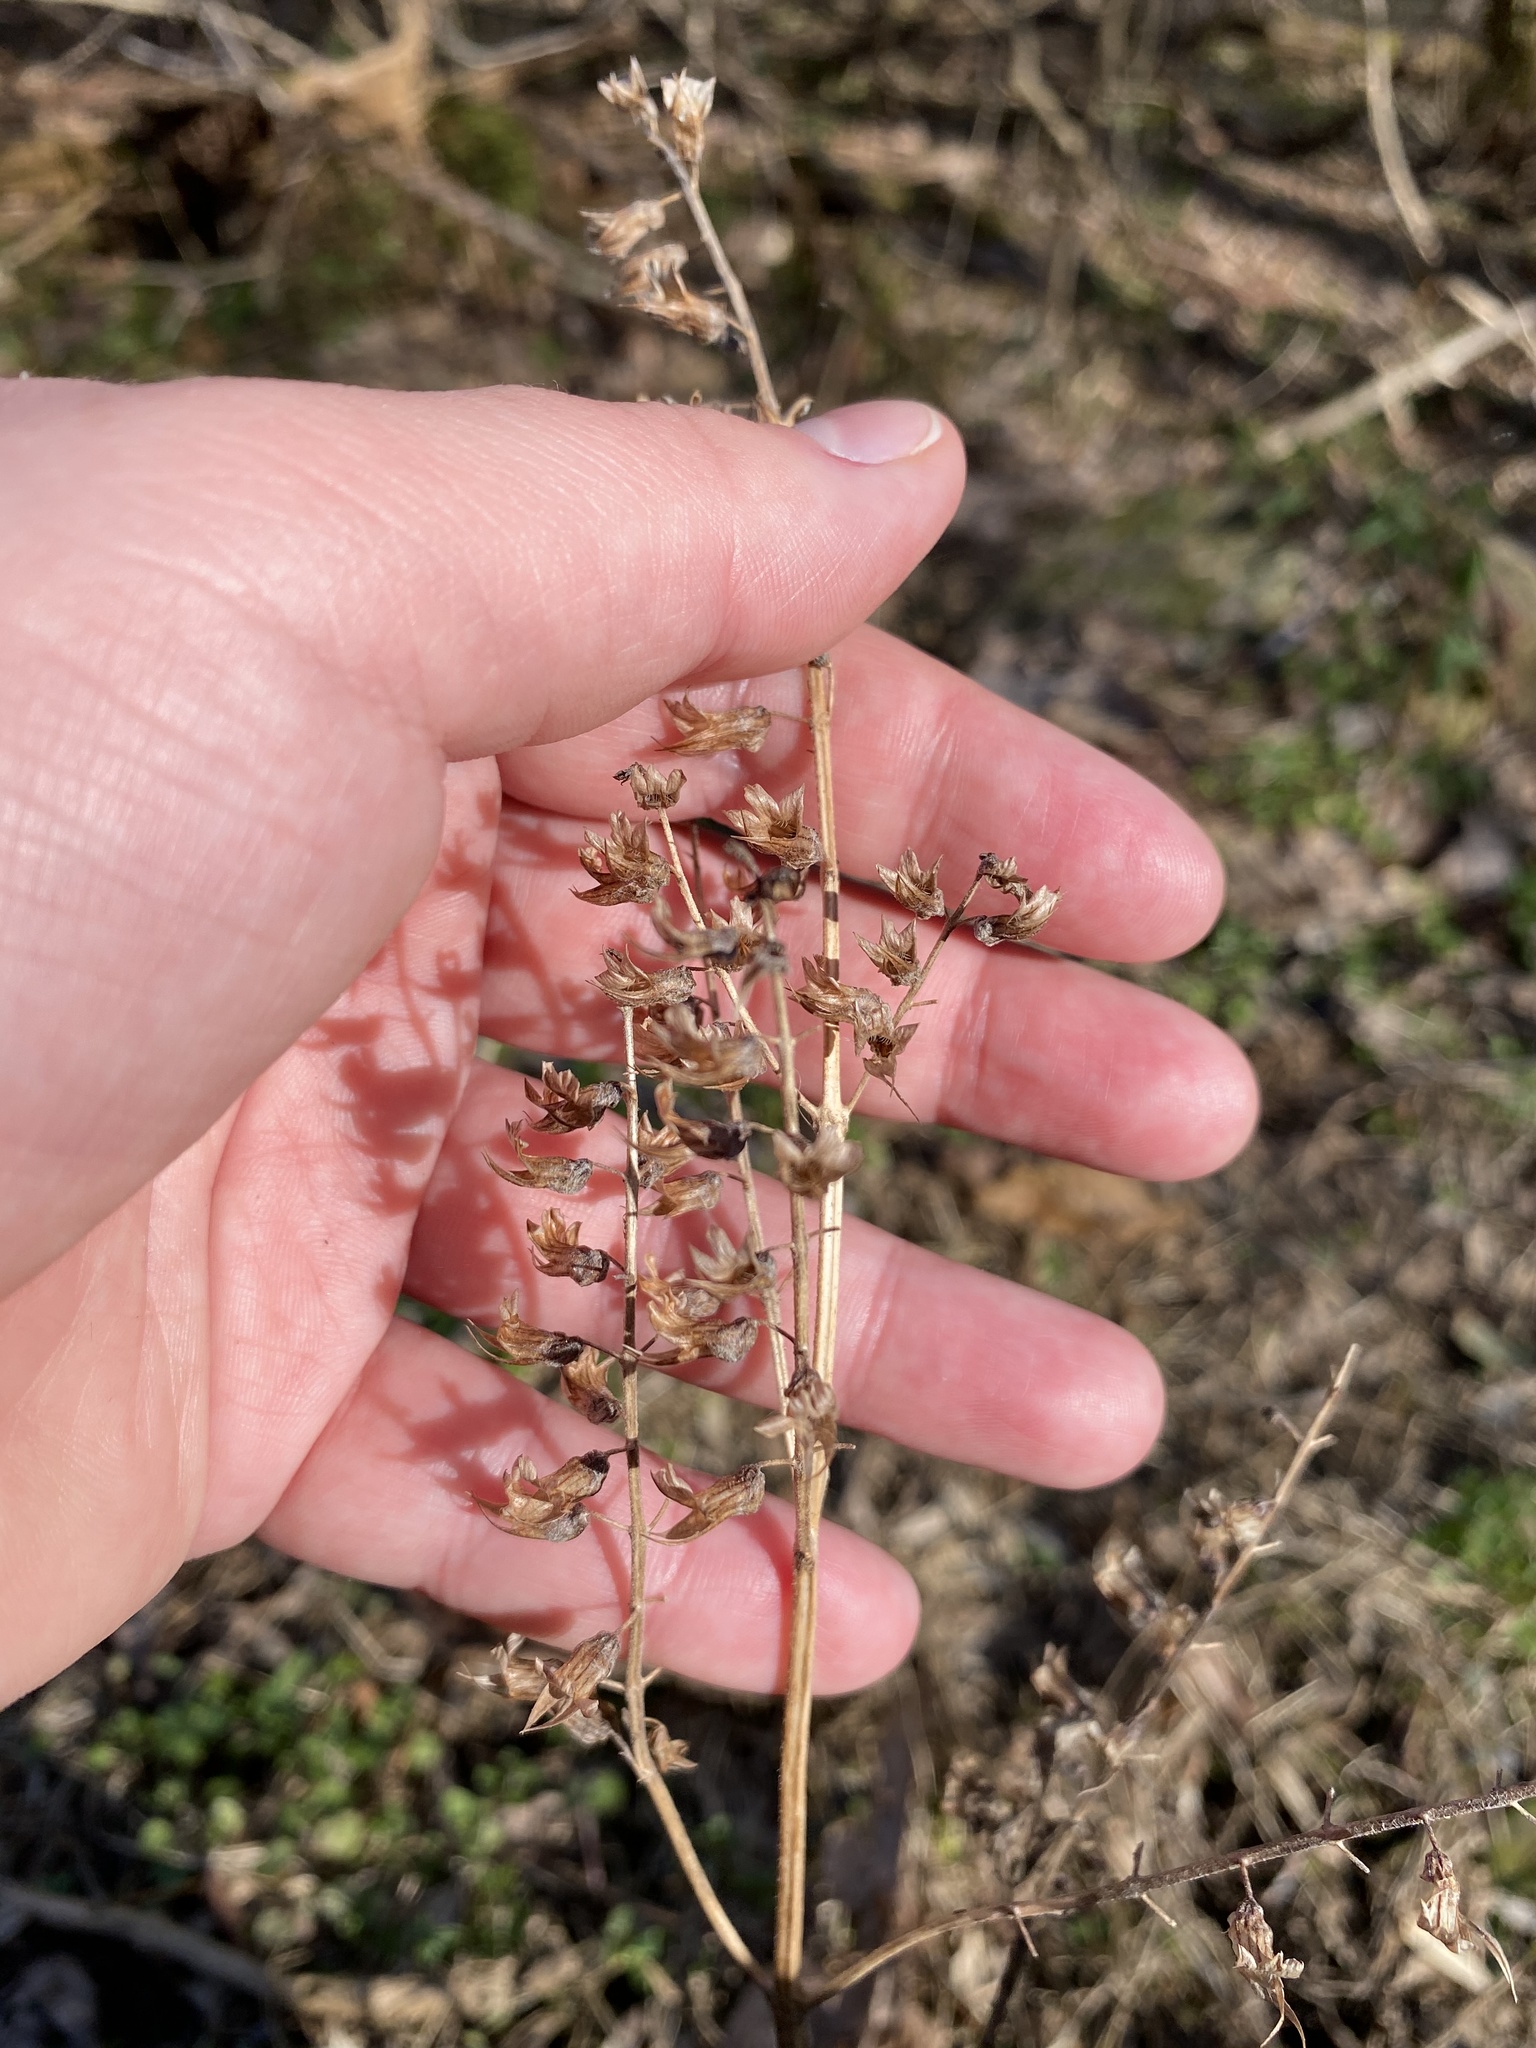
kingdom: Plantae
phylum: Tracheophyta
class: Magnoliopsida
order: Lamiales
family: Lamiaceae
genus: Perilla
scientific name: Perilla frutescens
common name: Perilla
